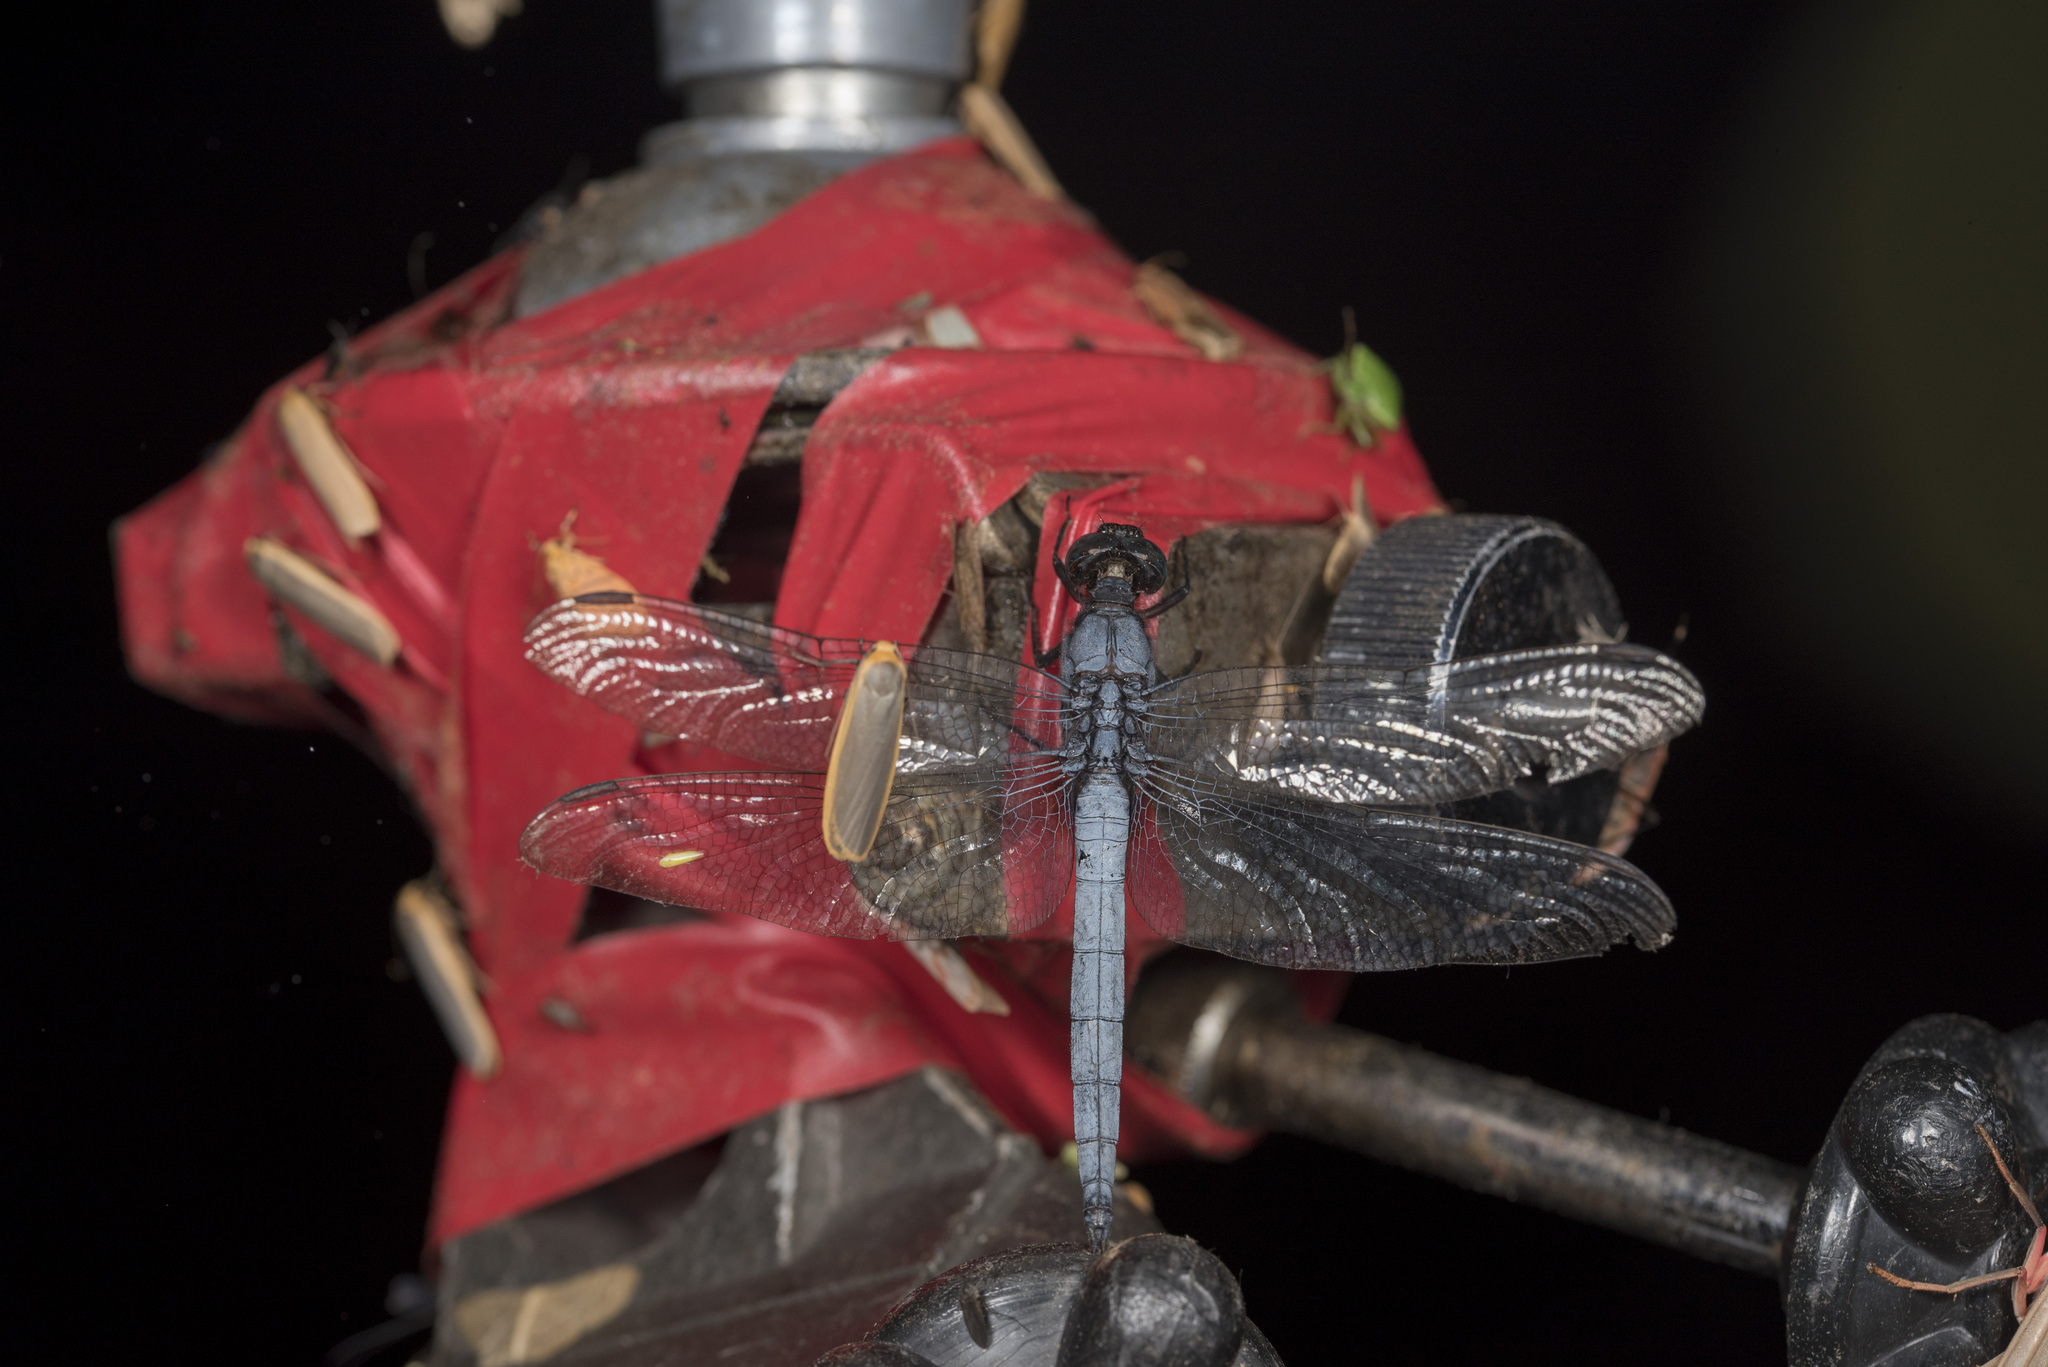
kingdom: Animalia
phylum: Arthropoda
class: Insecta
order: Odonata
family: Libellulidae
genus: Orthetrum
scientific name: Orthetrum glaucum
